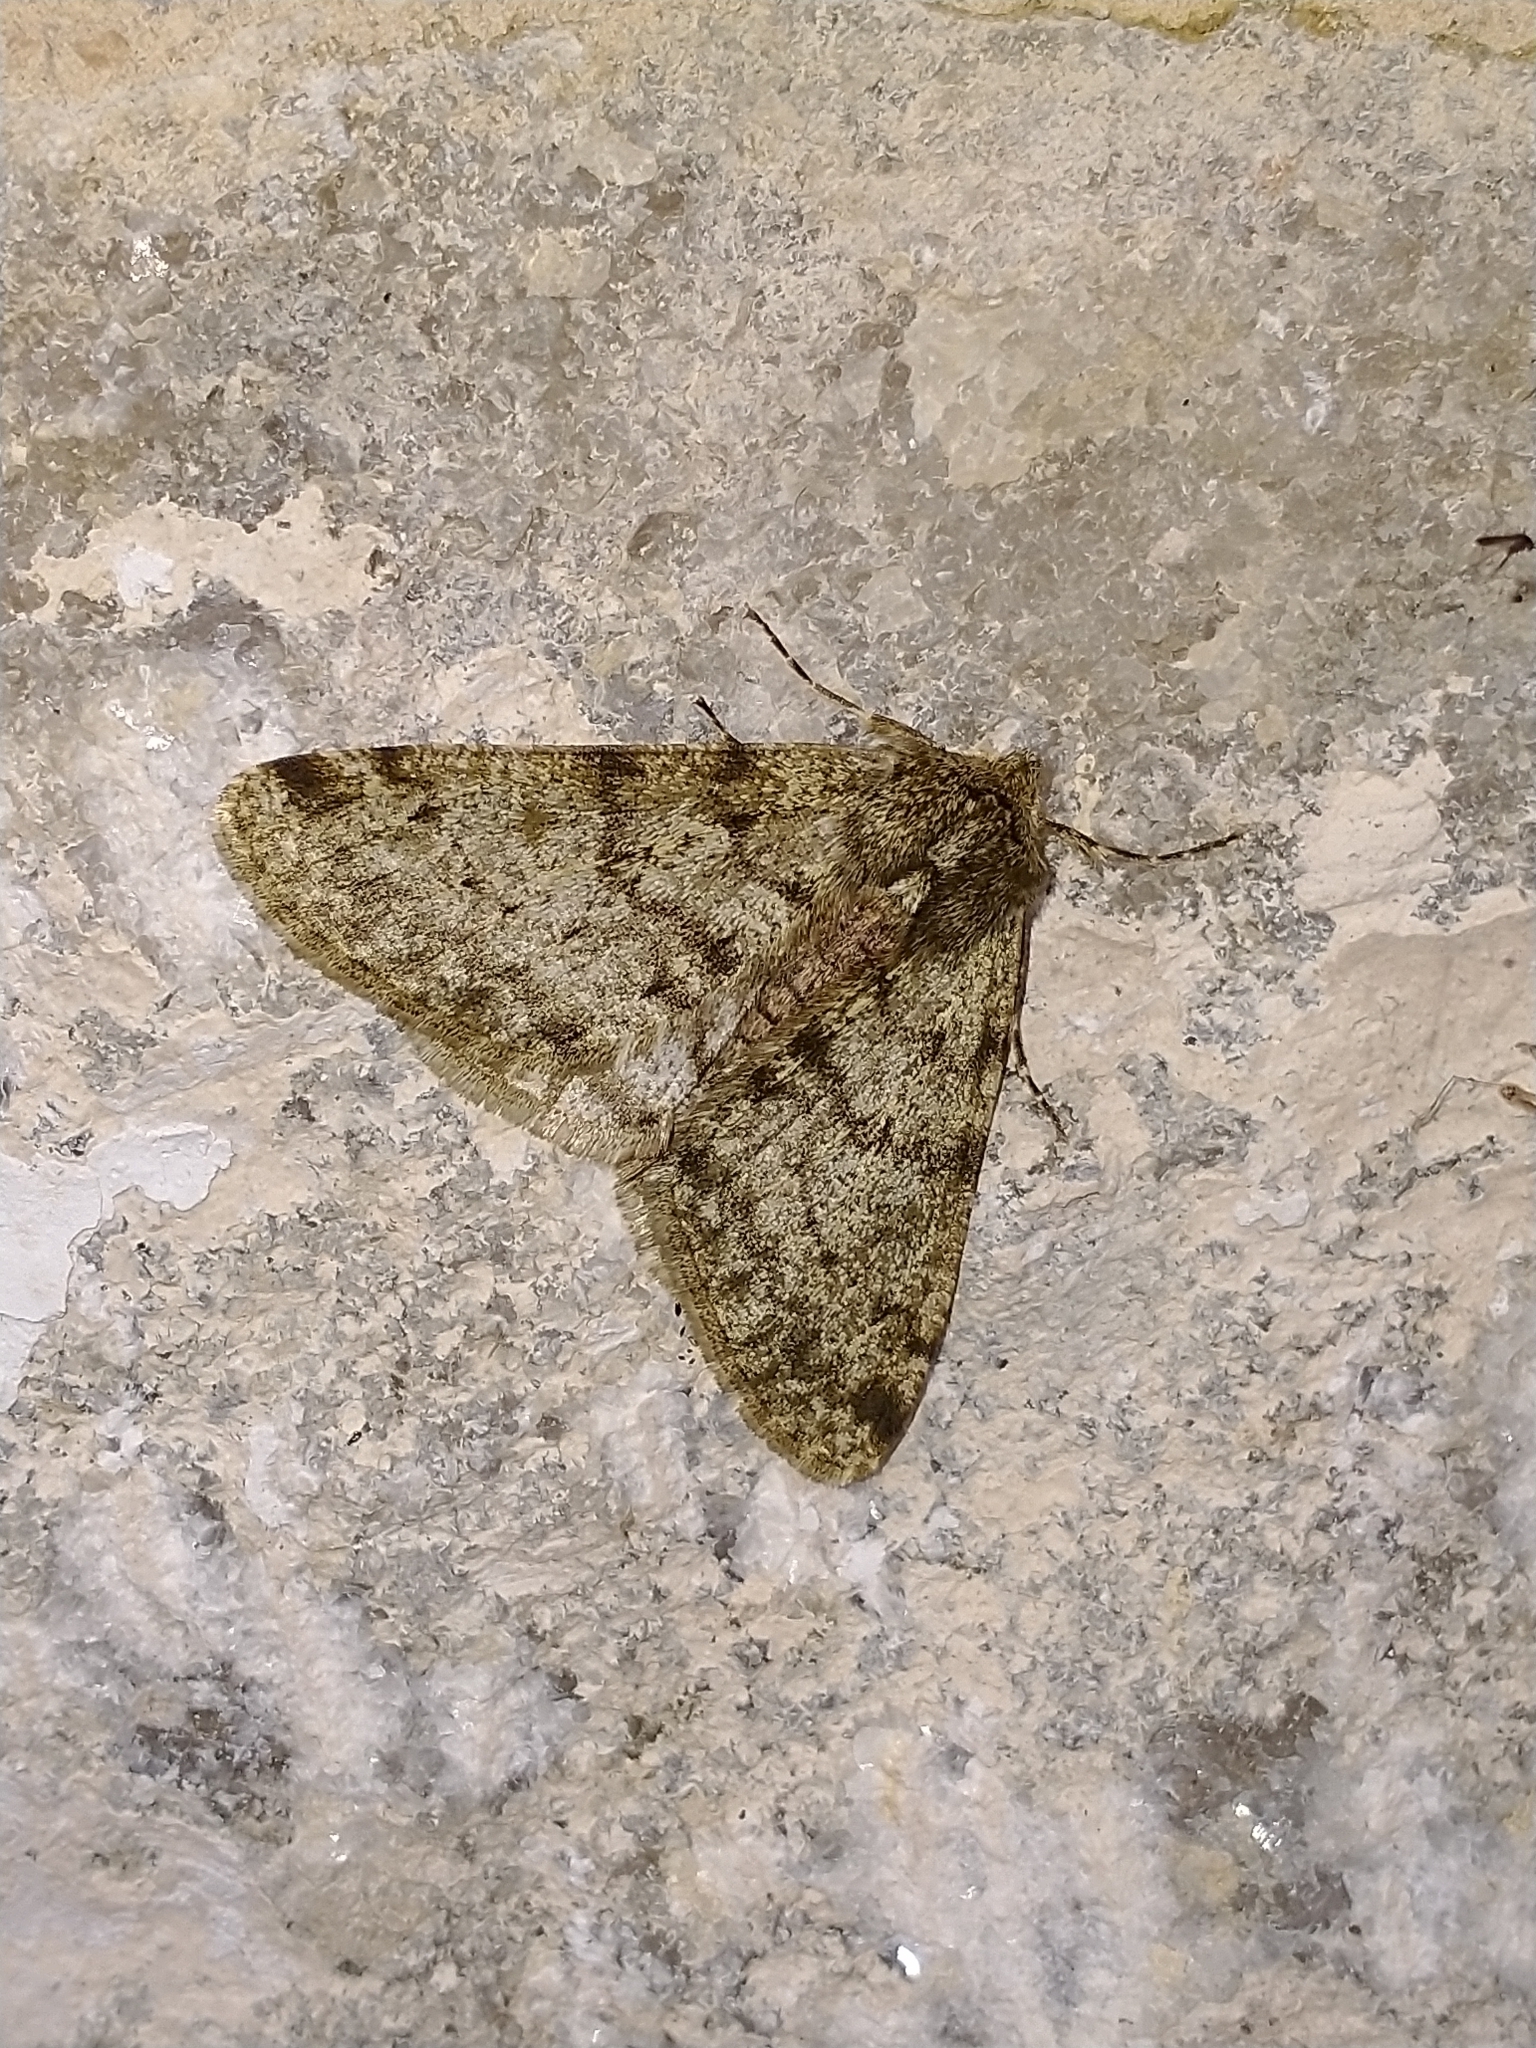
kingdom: Animalia
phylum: Arthropoda
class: Insecta
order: Lepidoptera
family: Geometridae
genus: Phigalia
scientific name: Phigalia pilosaria
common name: Pale brindled beauty
